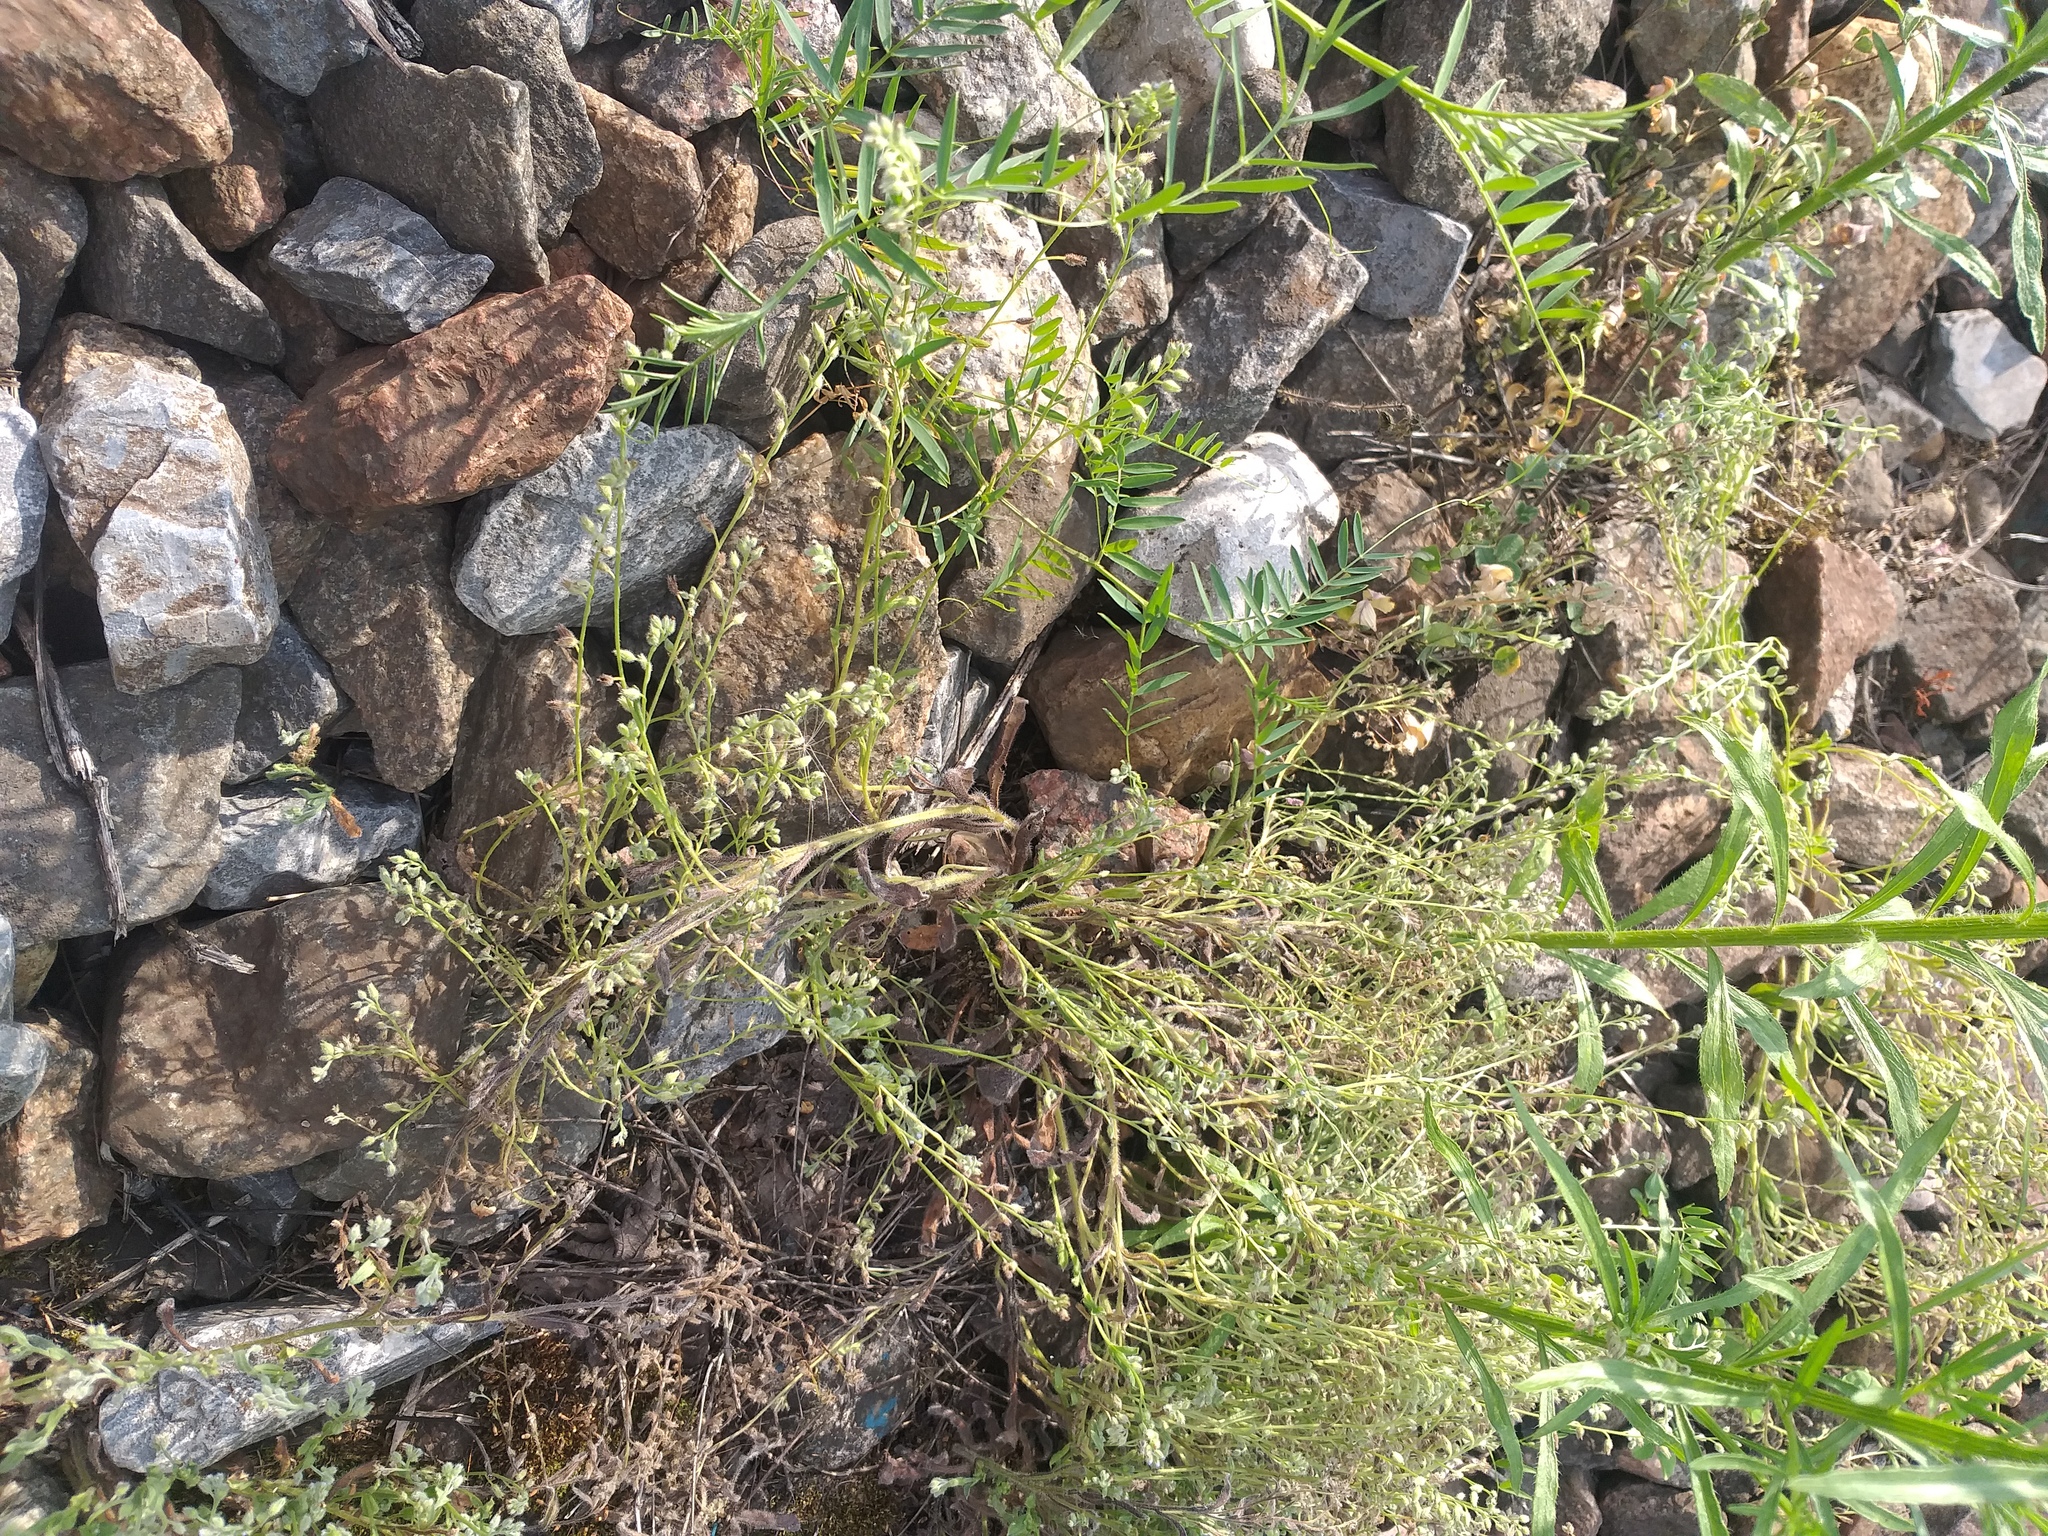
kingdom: Plantae
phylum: Tracheophyta
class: Magnoliopsida
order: Boraginales
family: Boraginaceae
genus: Myosotis
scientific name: Myosotis arvensis
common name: Field forget-me-not
